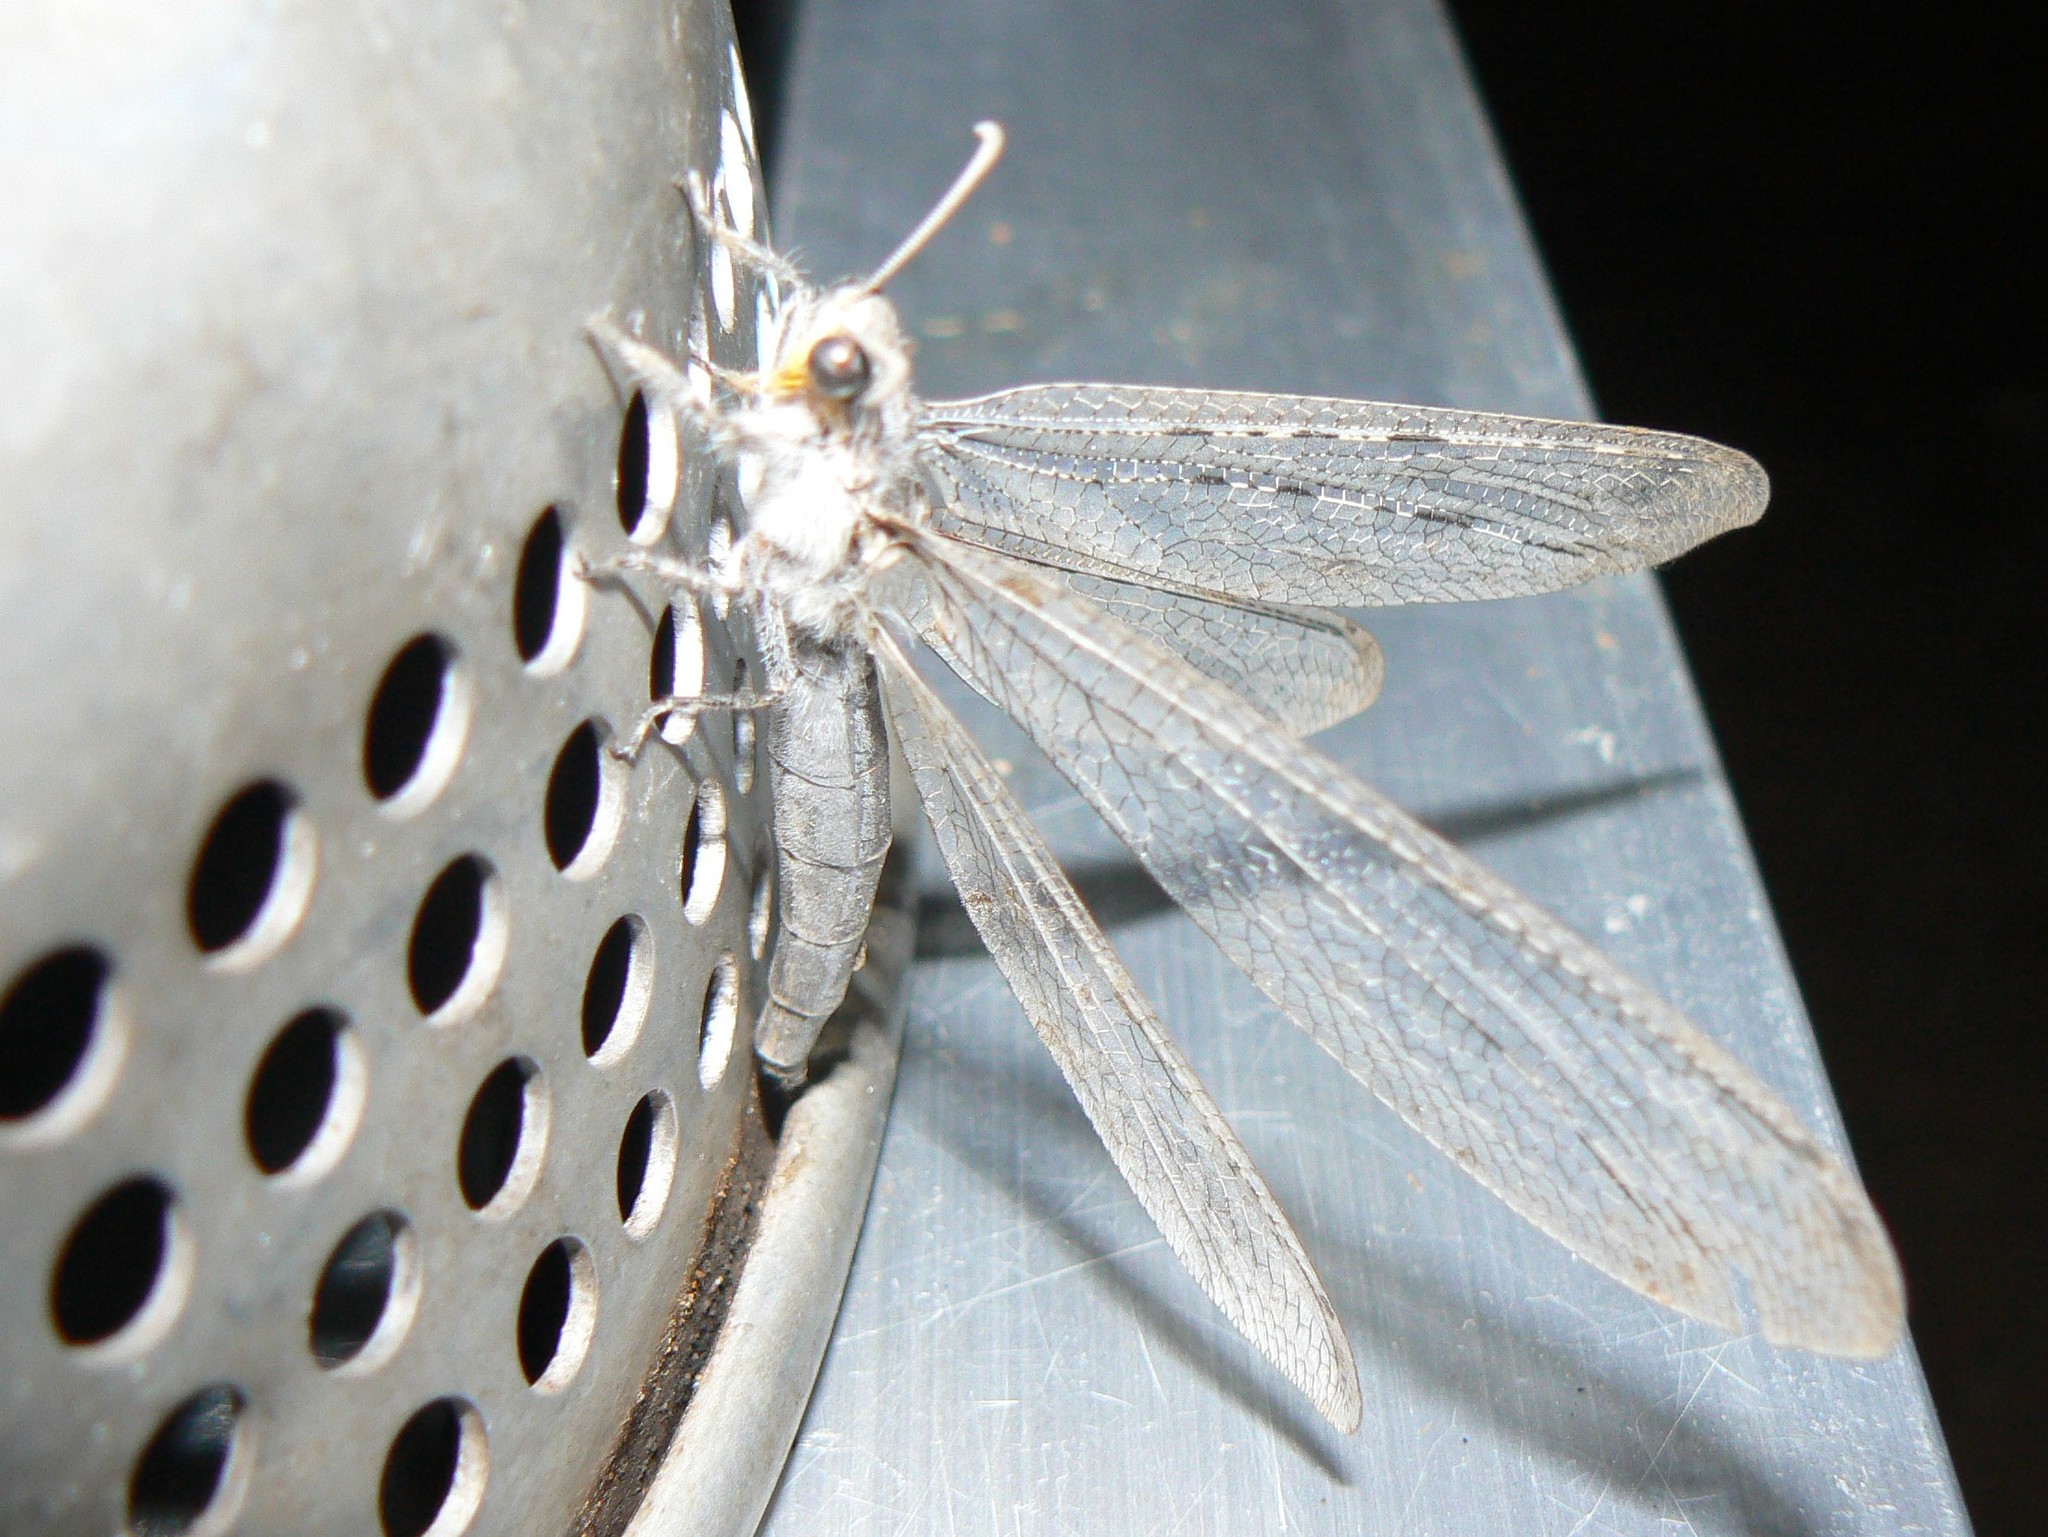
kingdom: Animalia
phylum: Arthropoda
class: Insecta
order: Neuroptera
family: Myrmeleontidae
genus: Heoclisis
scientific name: Heoclisis fundata
